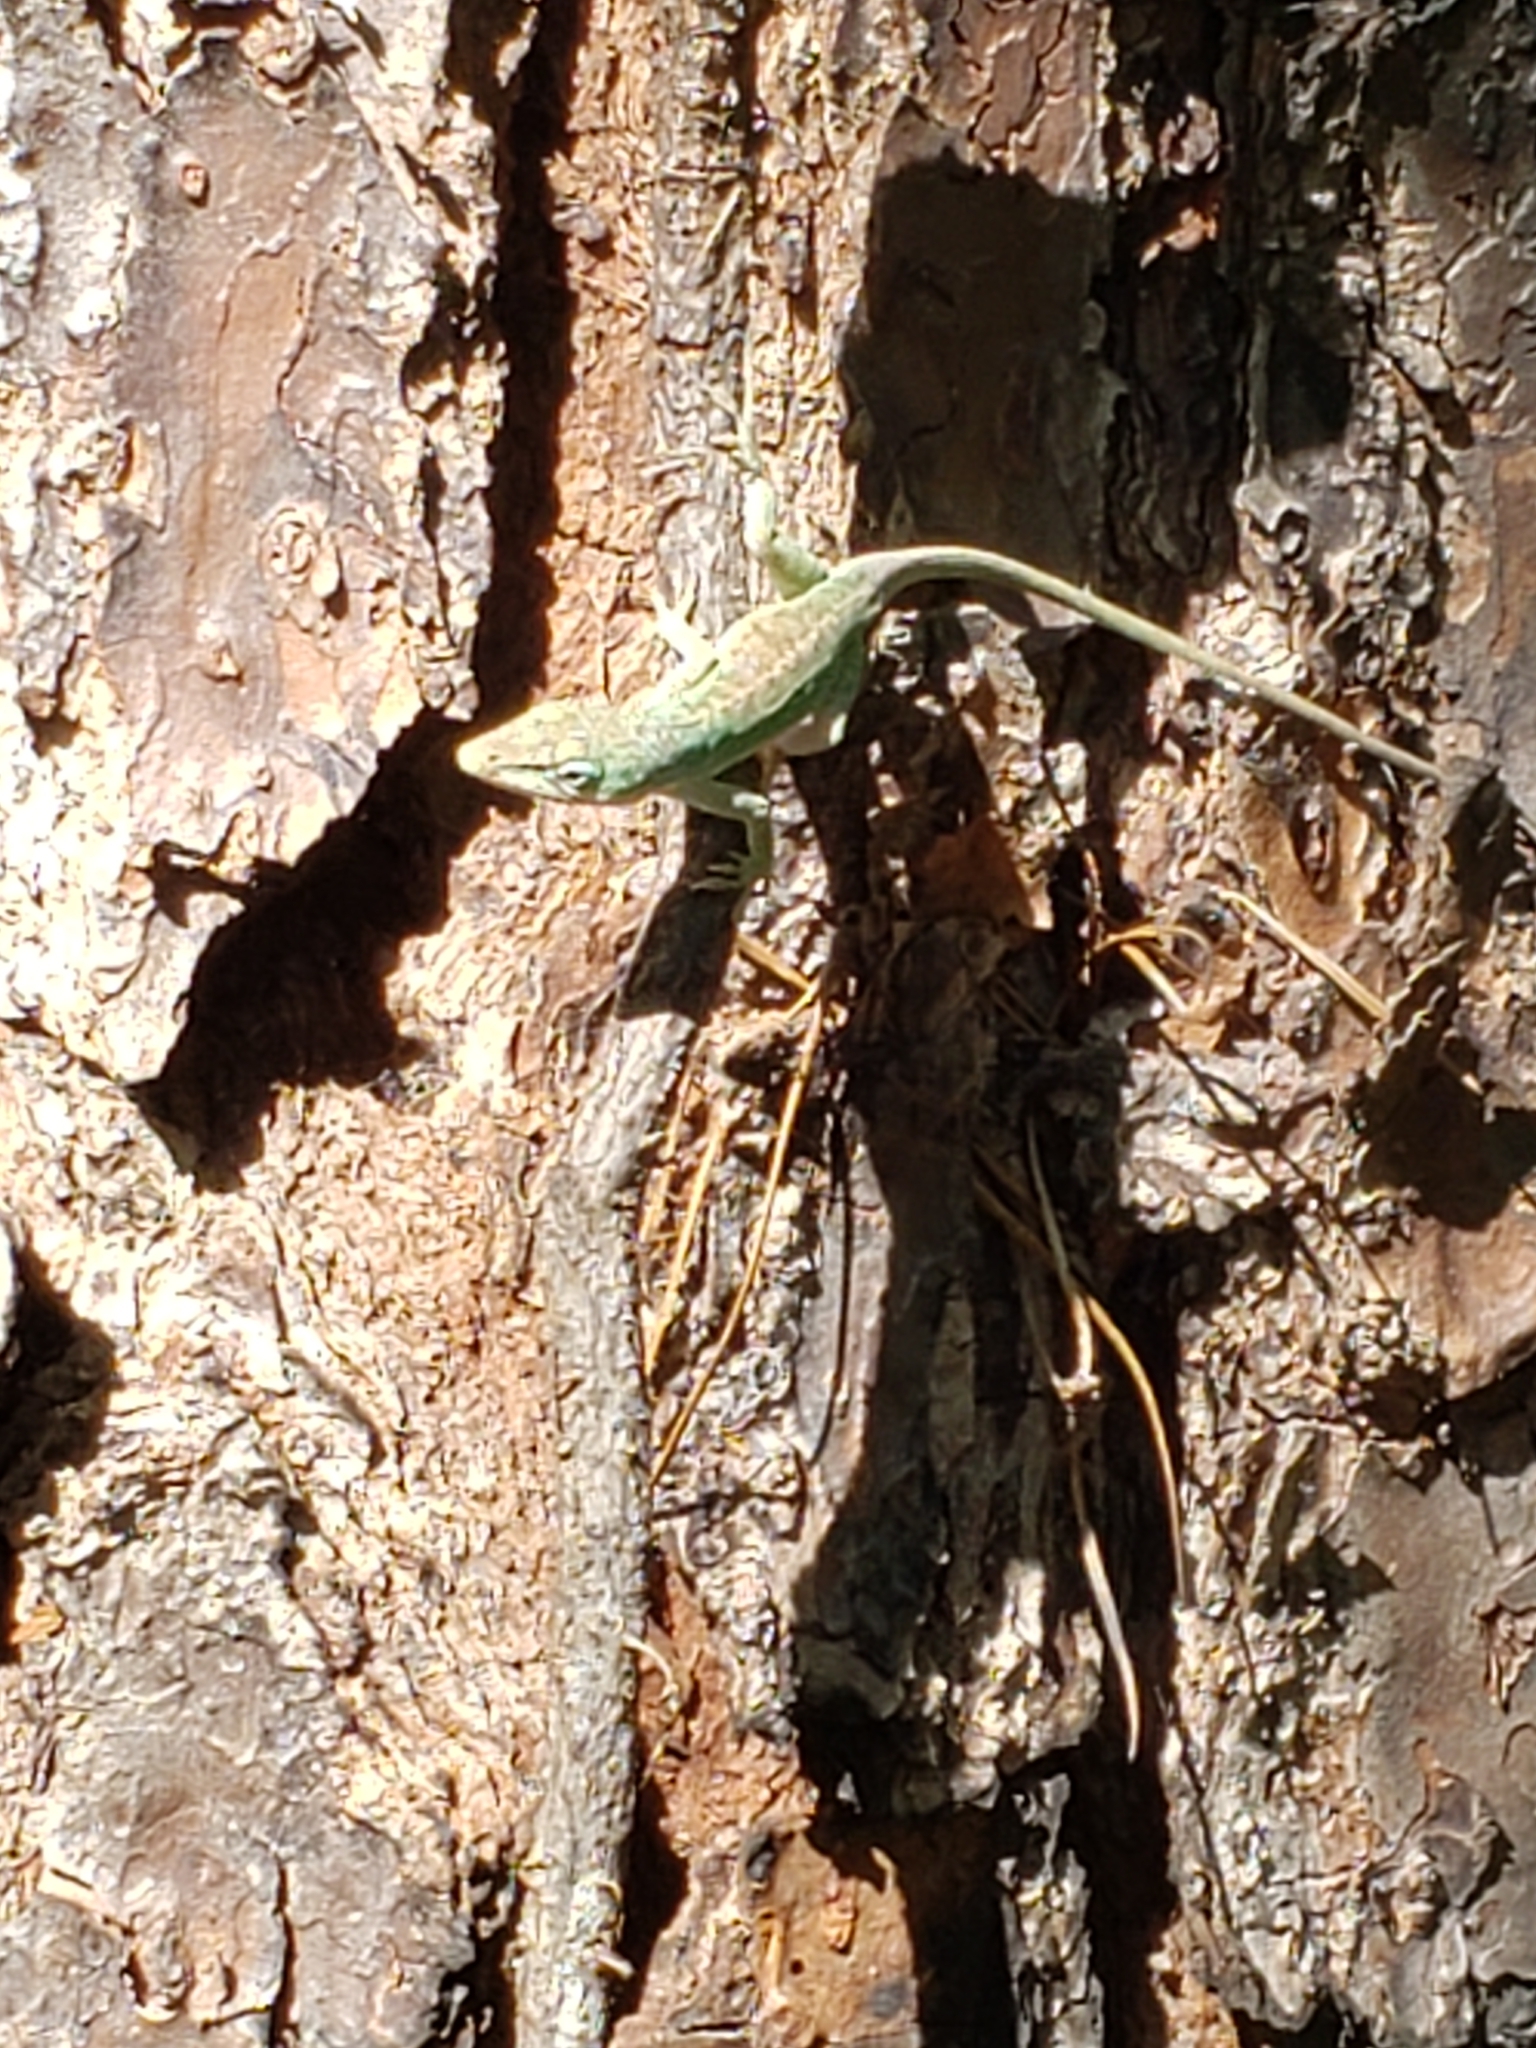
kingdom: Animalia
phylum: Chordata
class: Squamata
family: Dactyloidae
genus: Anolis
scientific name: Anolis carolinensis
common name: Green anole
